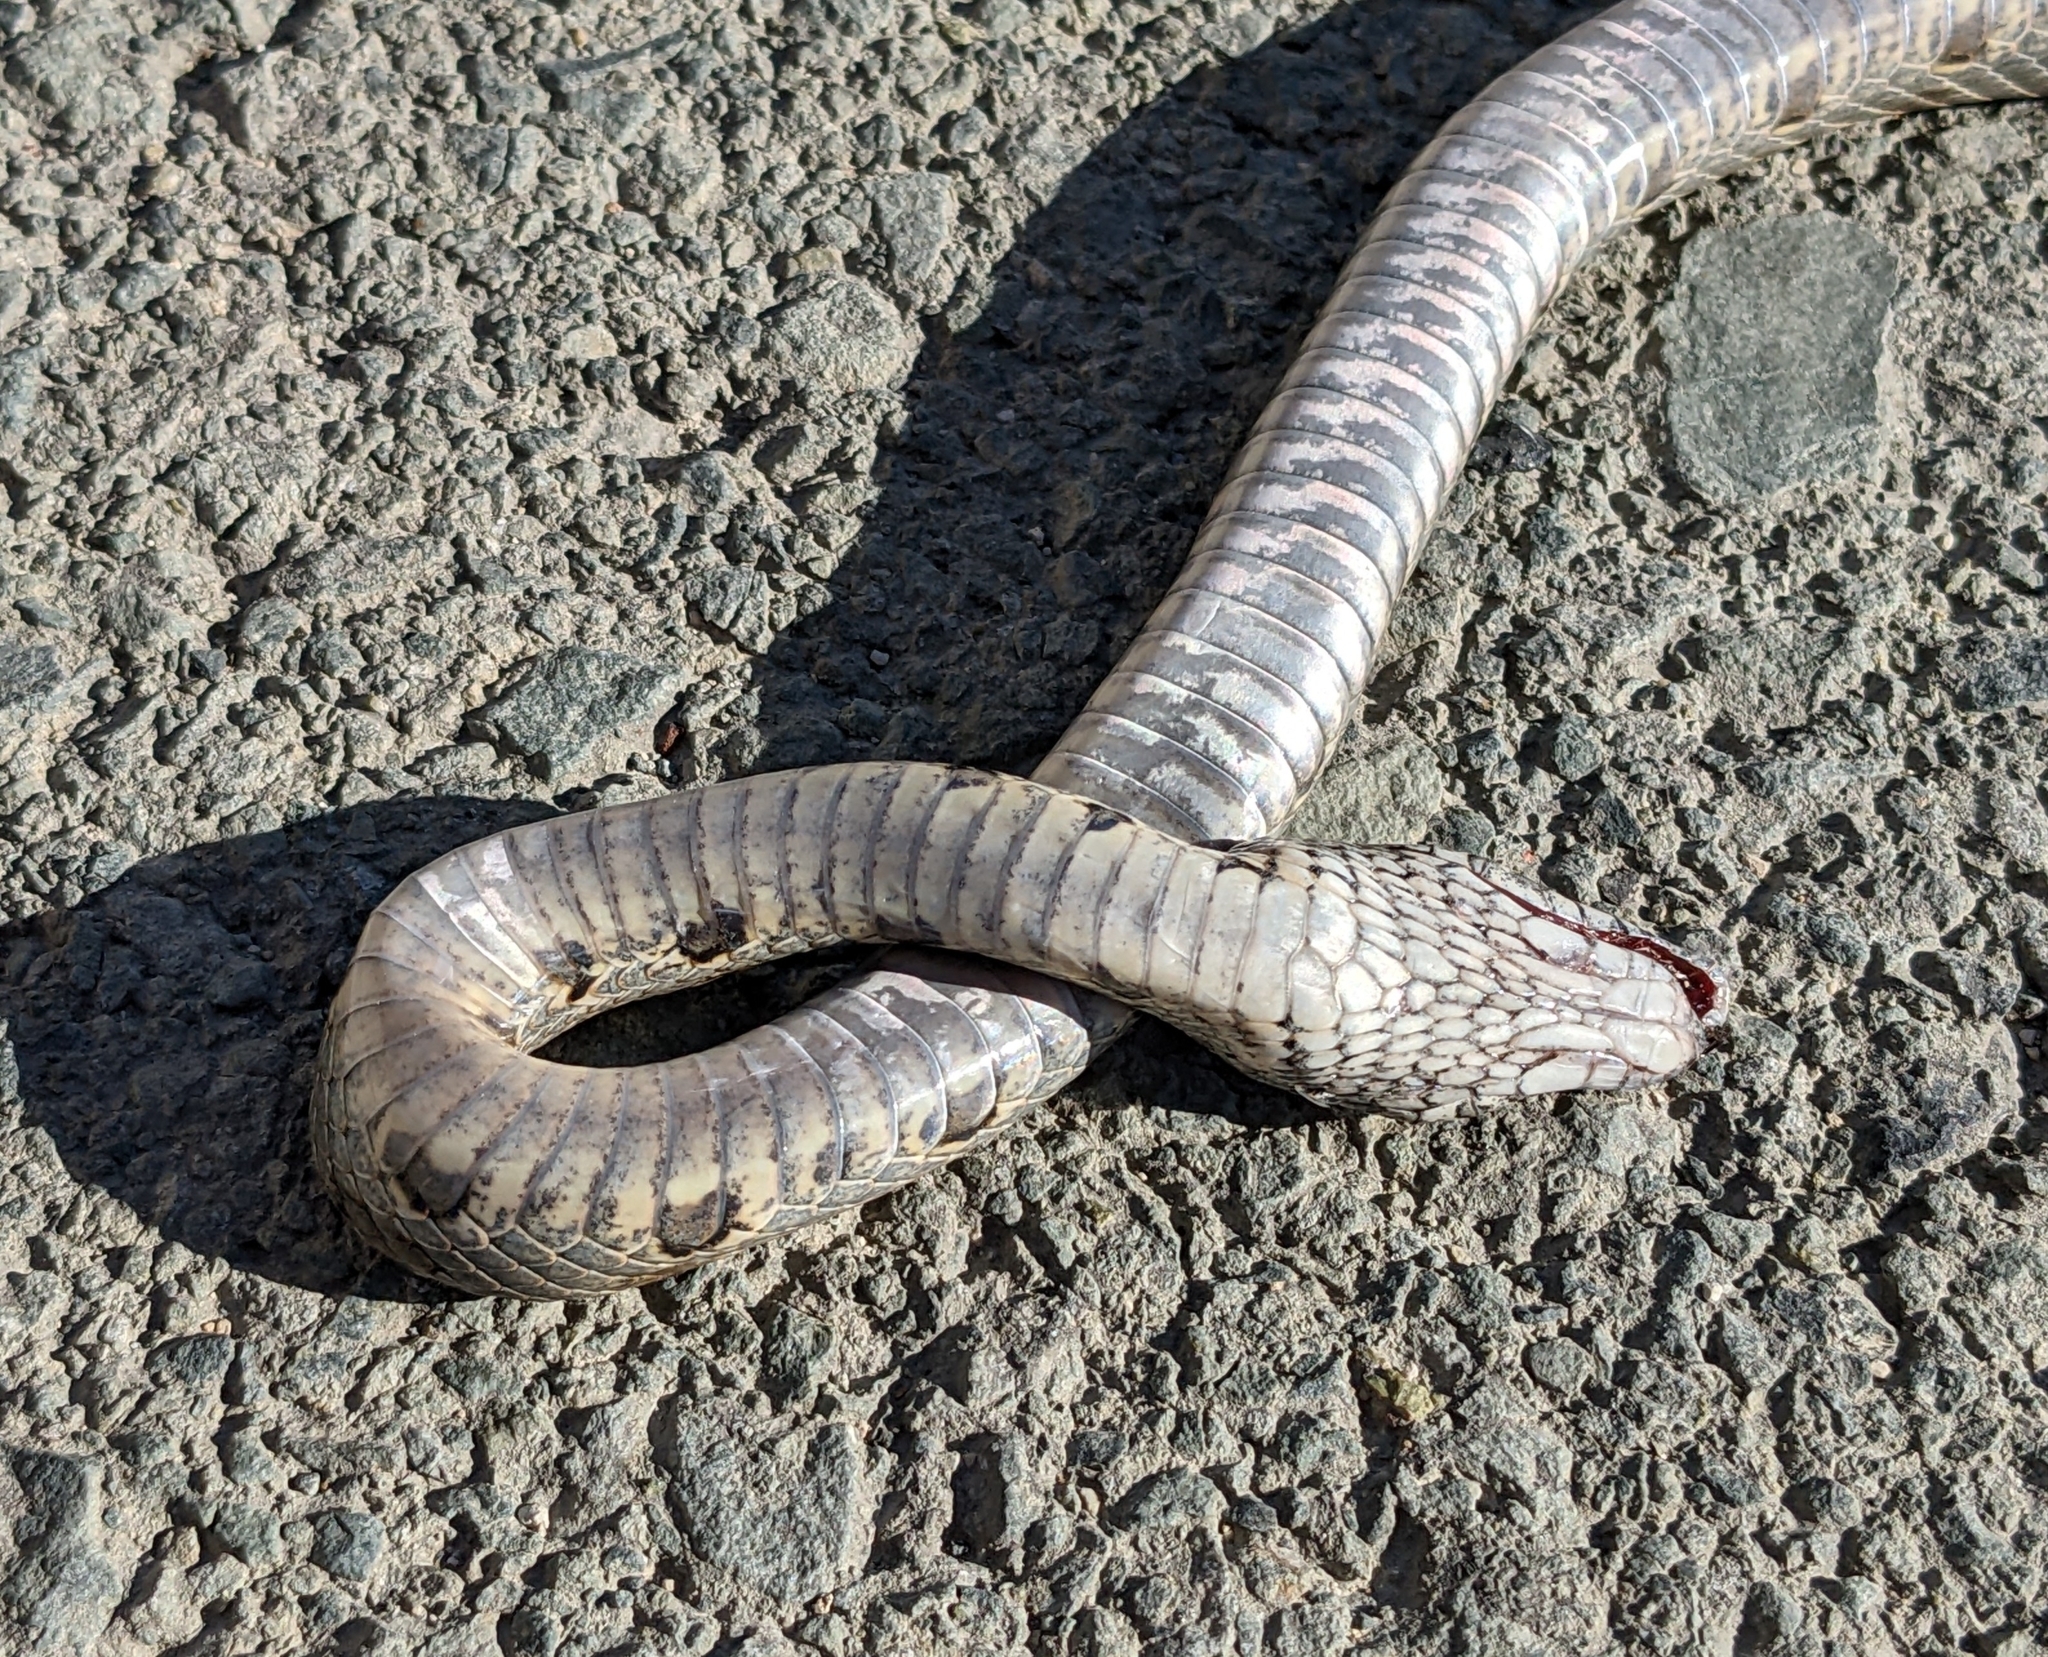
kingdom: Animalia
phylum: Chordata
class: Squamata
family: Colubridae
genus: Hemorrhois
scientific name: Hemorrhois nummifer
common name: Asian racer
